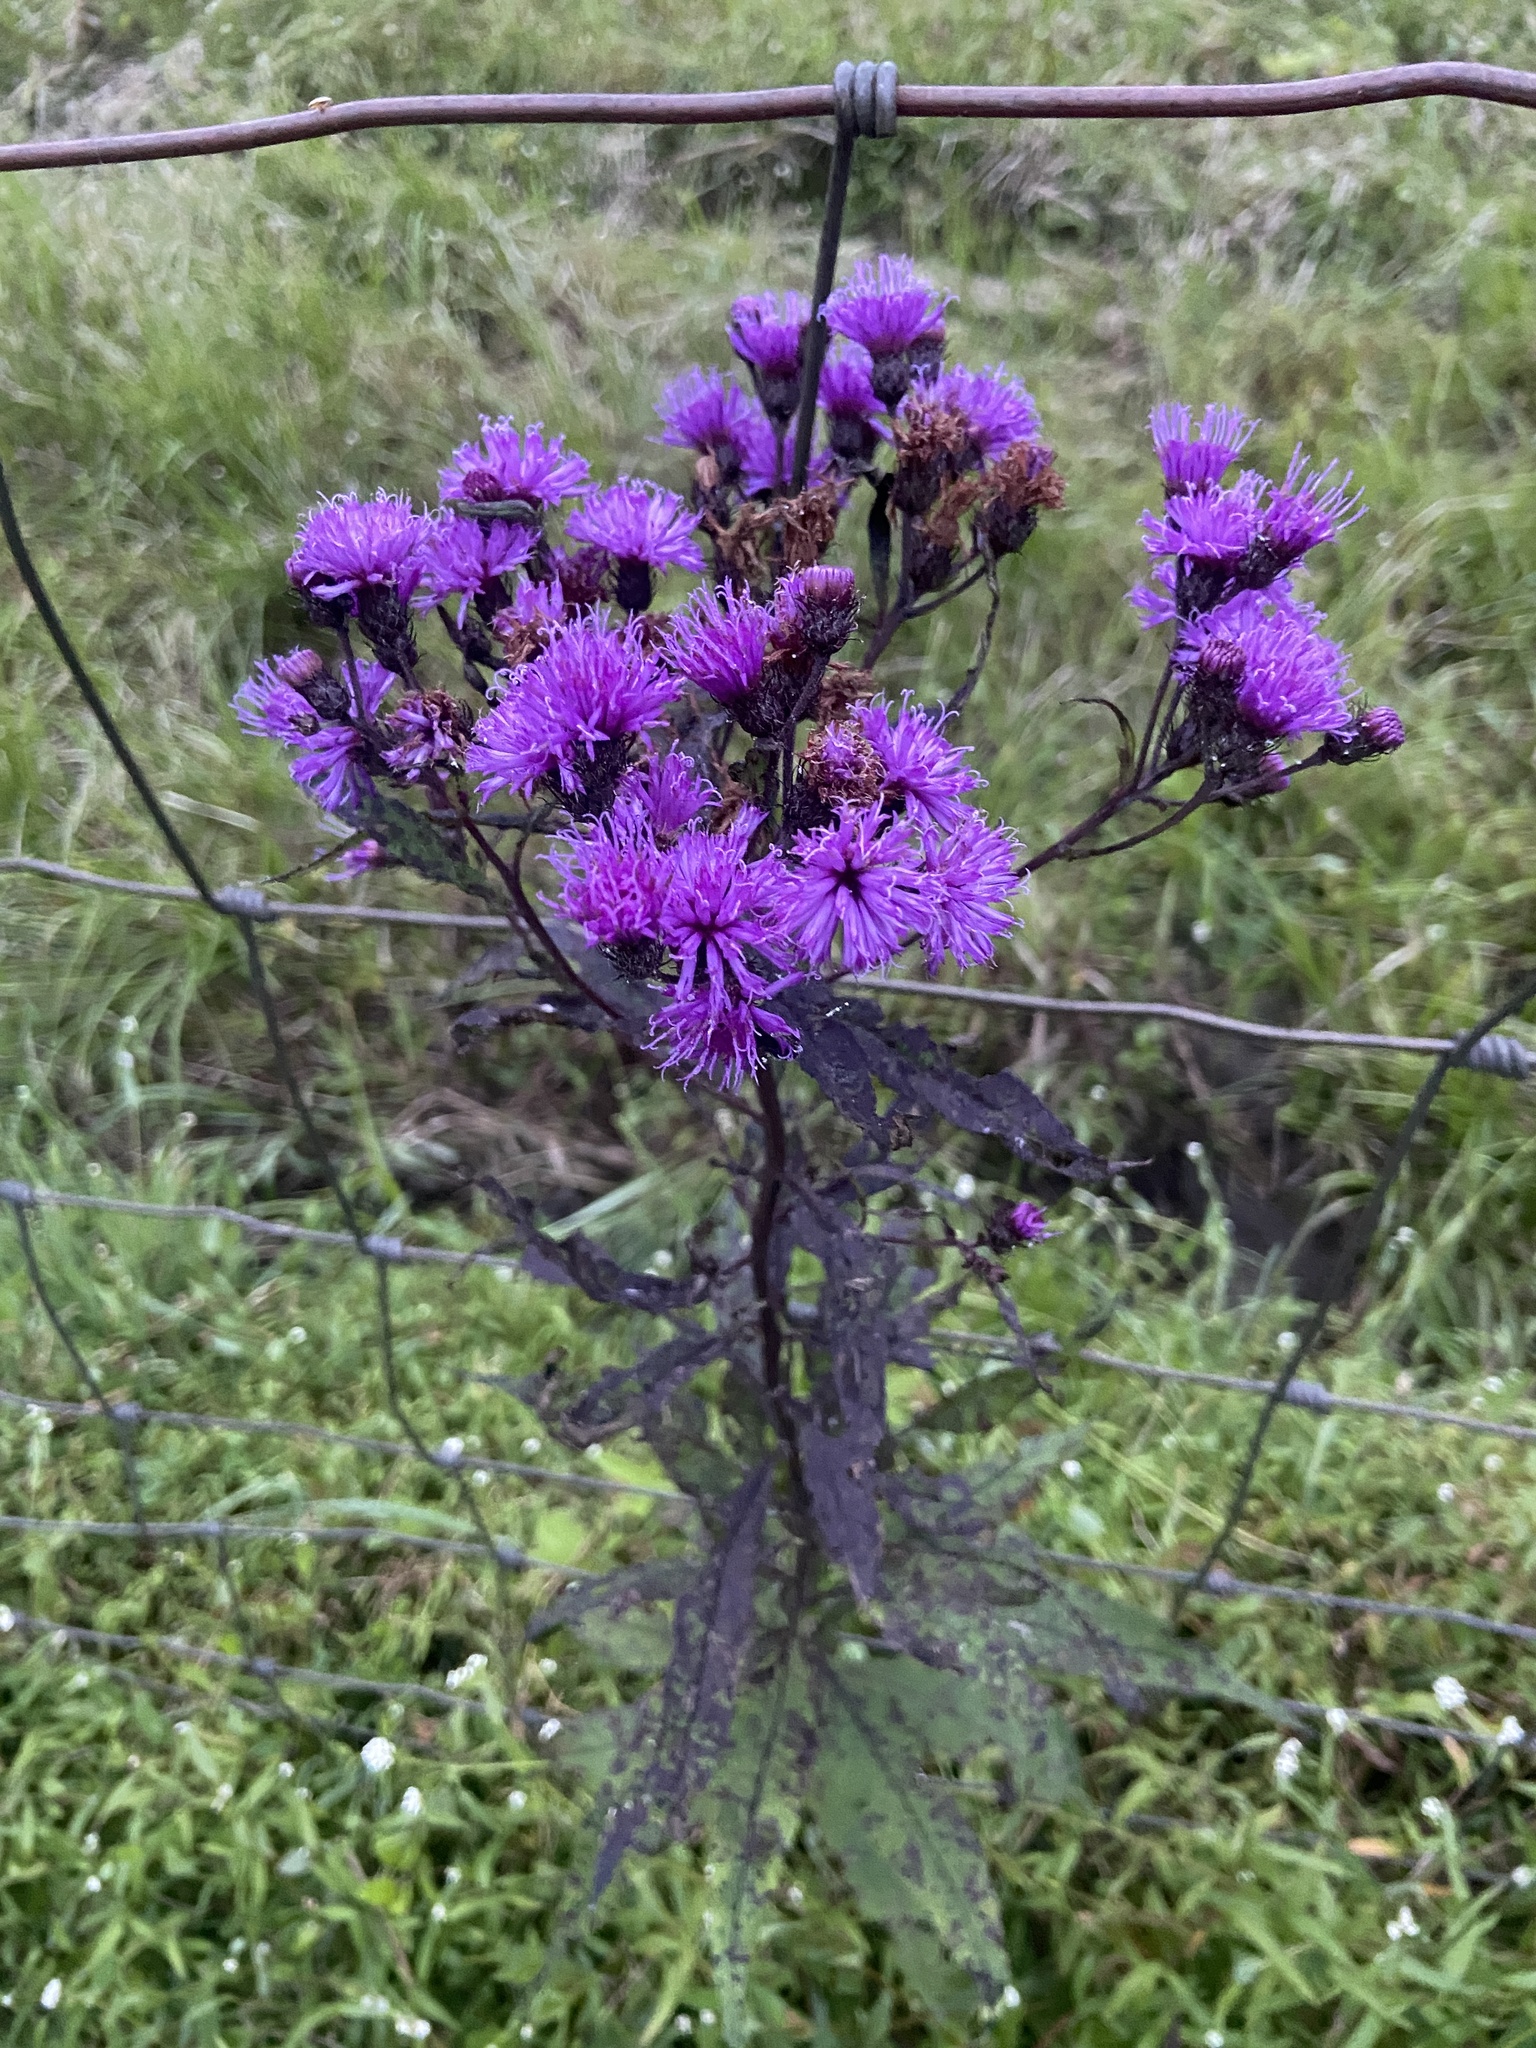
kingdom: Plantae
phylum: Tracheophyta
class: Magnoliopsida
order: Asterales
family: Asteraceae
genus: Vernonia
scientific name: Vernonia noveboracensis
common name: New york ironweed
